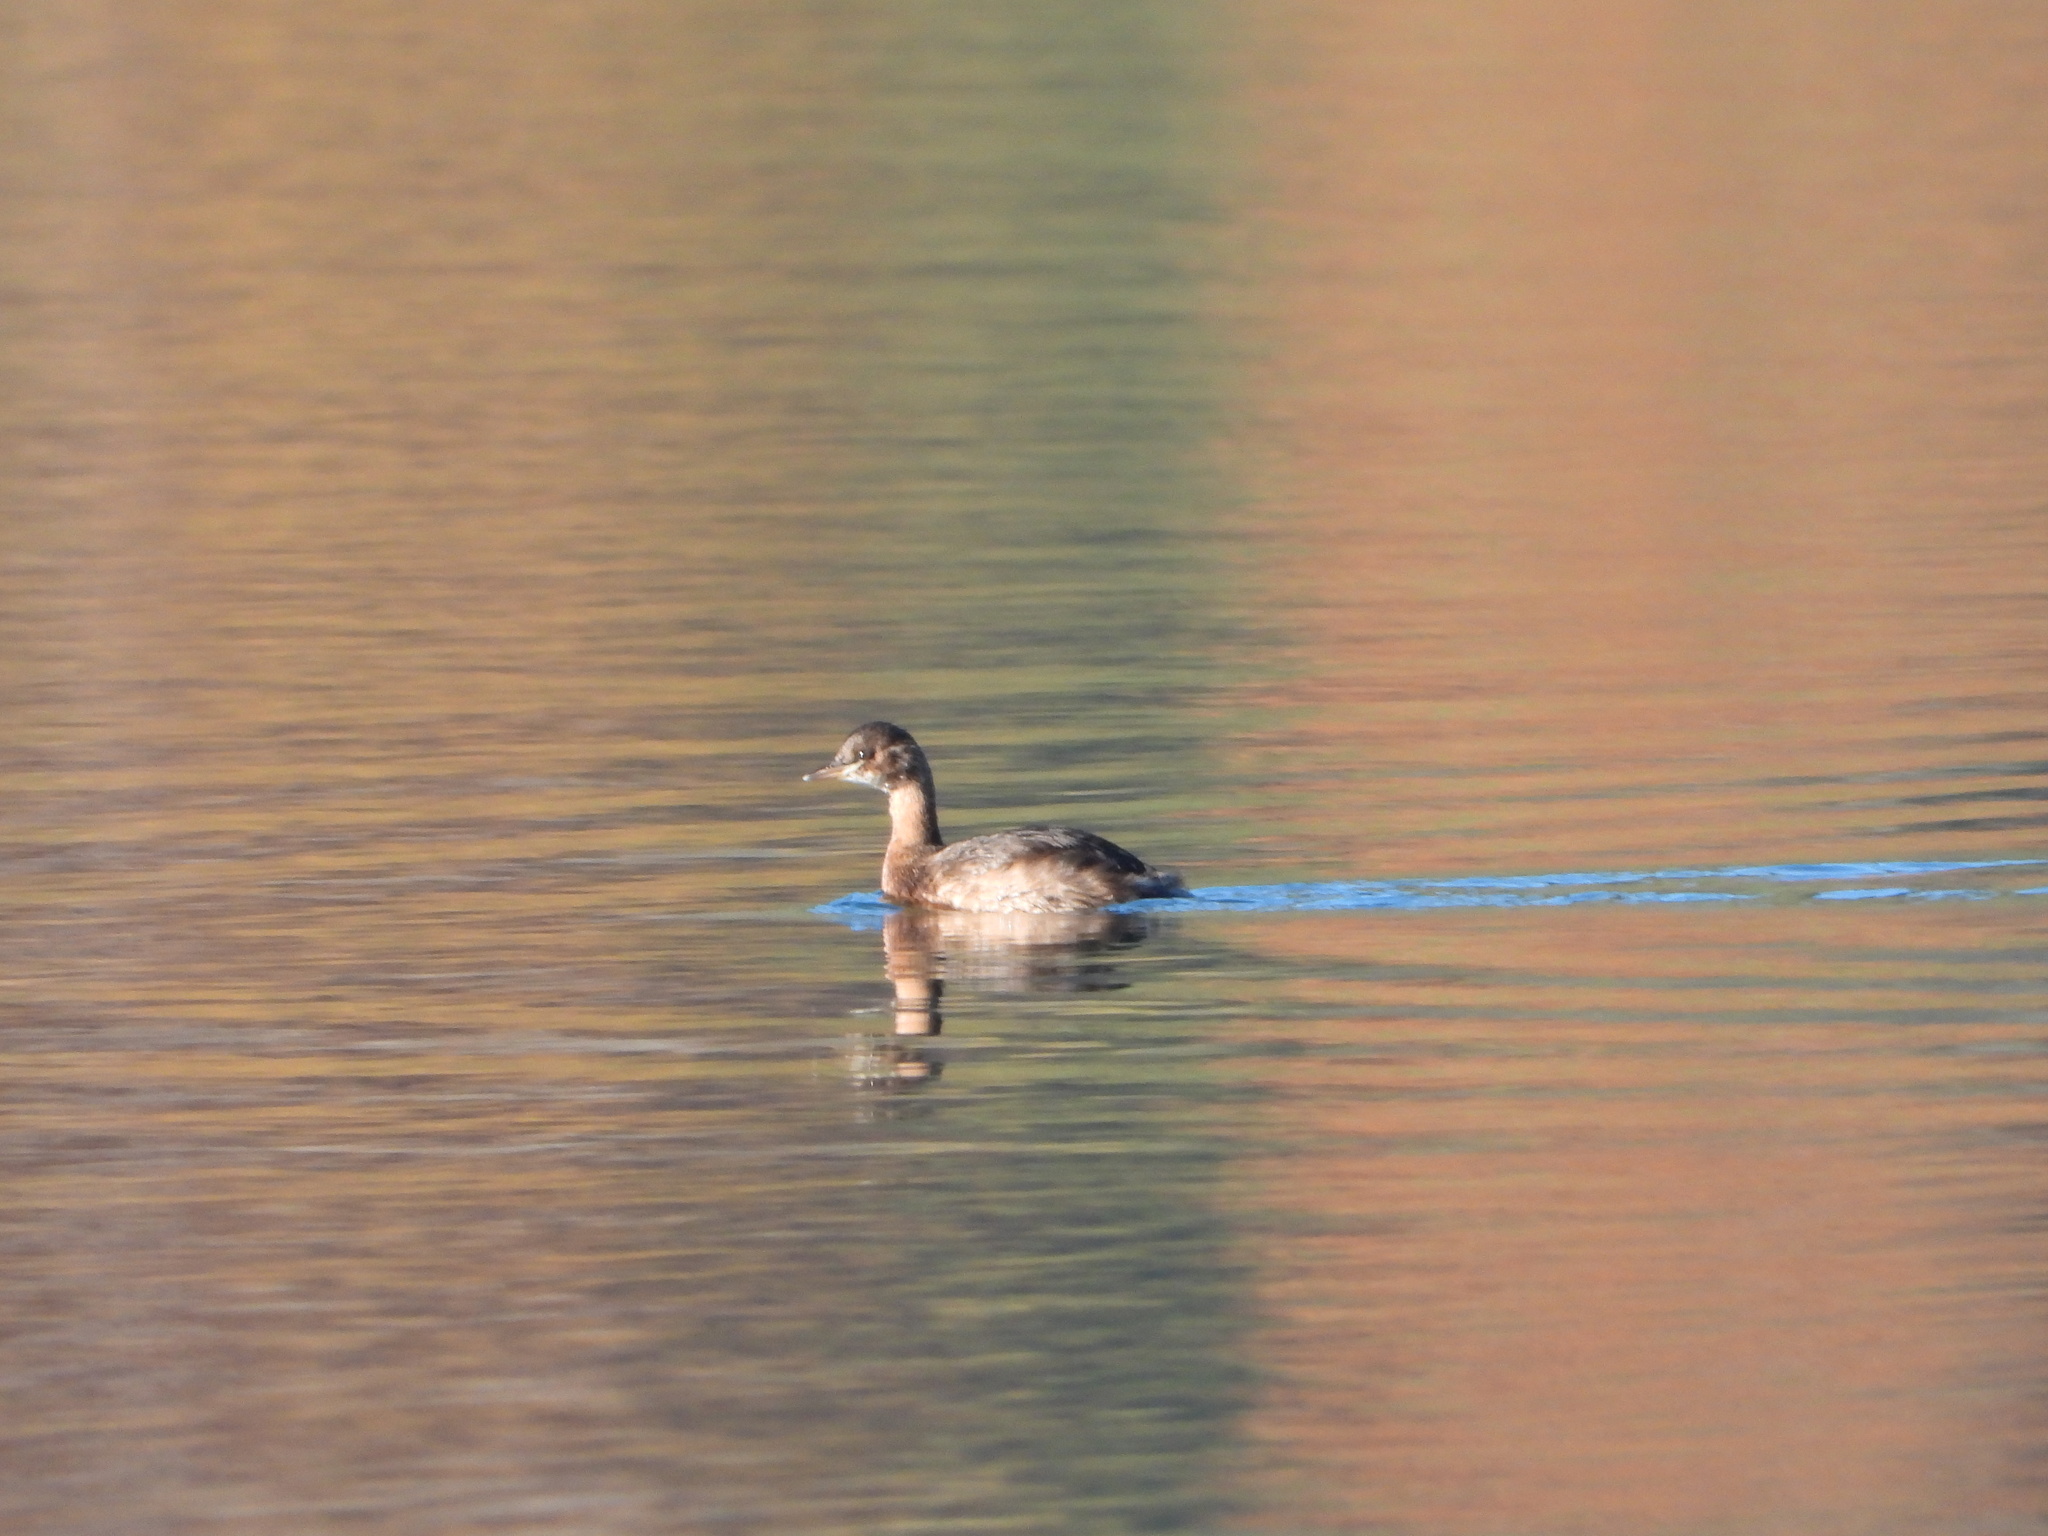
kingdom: Animalia
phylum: Chordata
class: Aves
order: Podicipediformes
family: Podicipedidae
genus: Tachybaptus
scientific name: Tachybaptus ruficollis
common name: Little grebe
